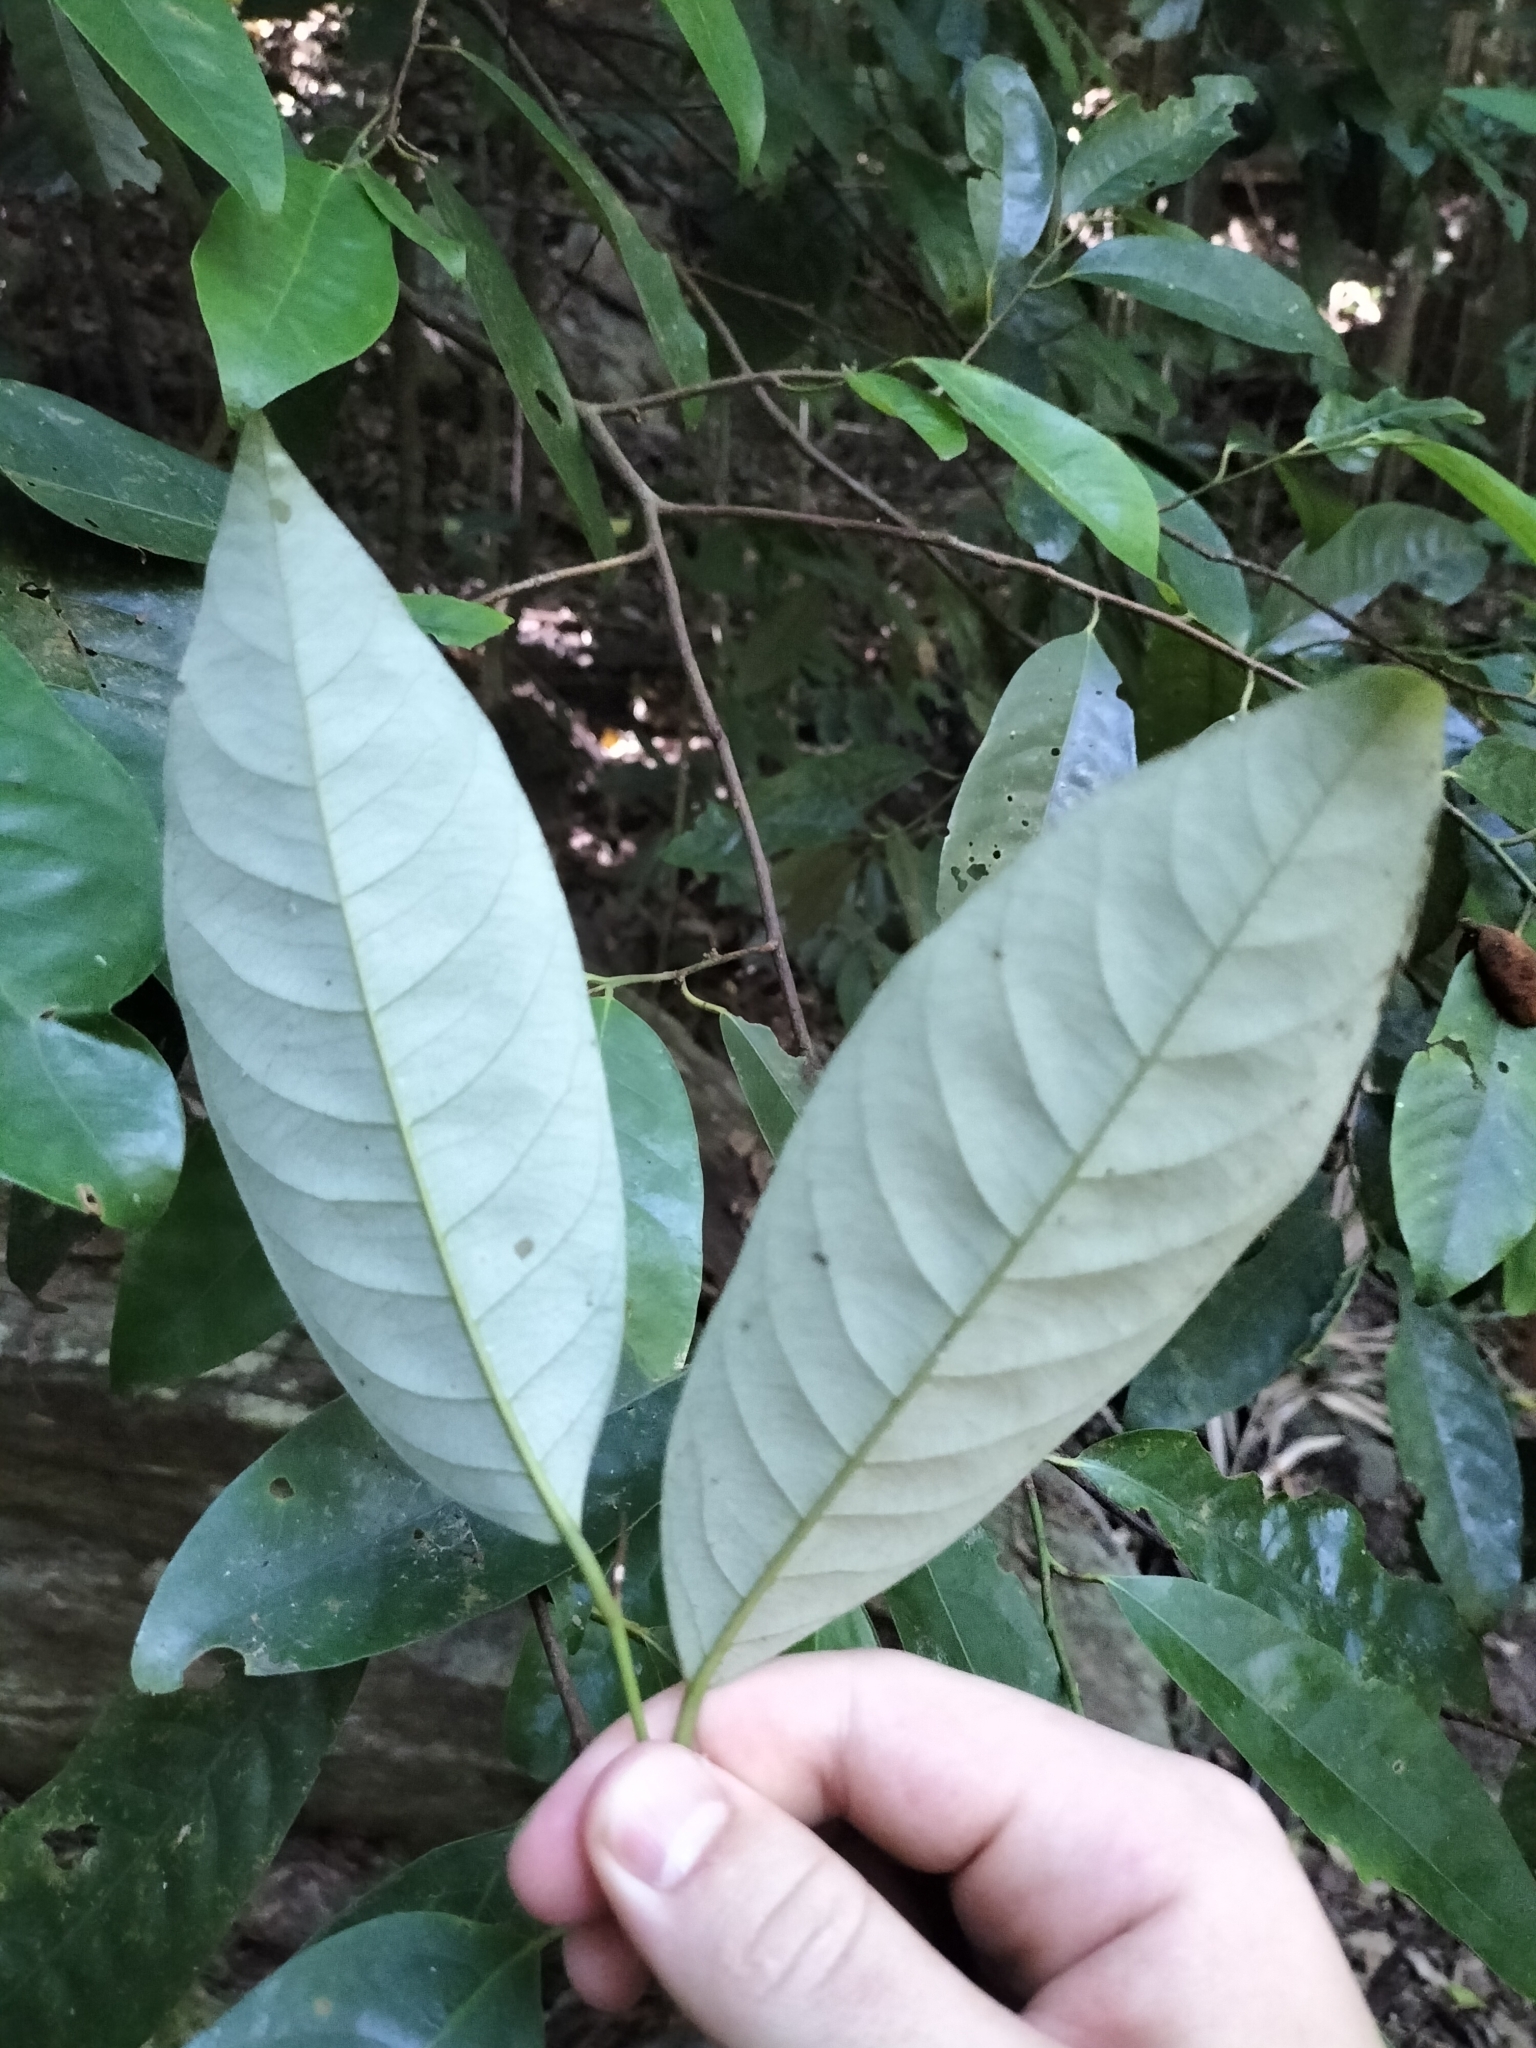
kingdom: Plantae
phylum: Tracheophyta
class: Magnoliopsida
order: Magnoliales
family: Myristicaceae
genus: Myristica
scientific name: Myristica globosa
